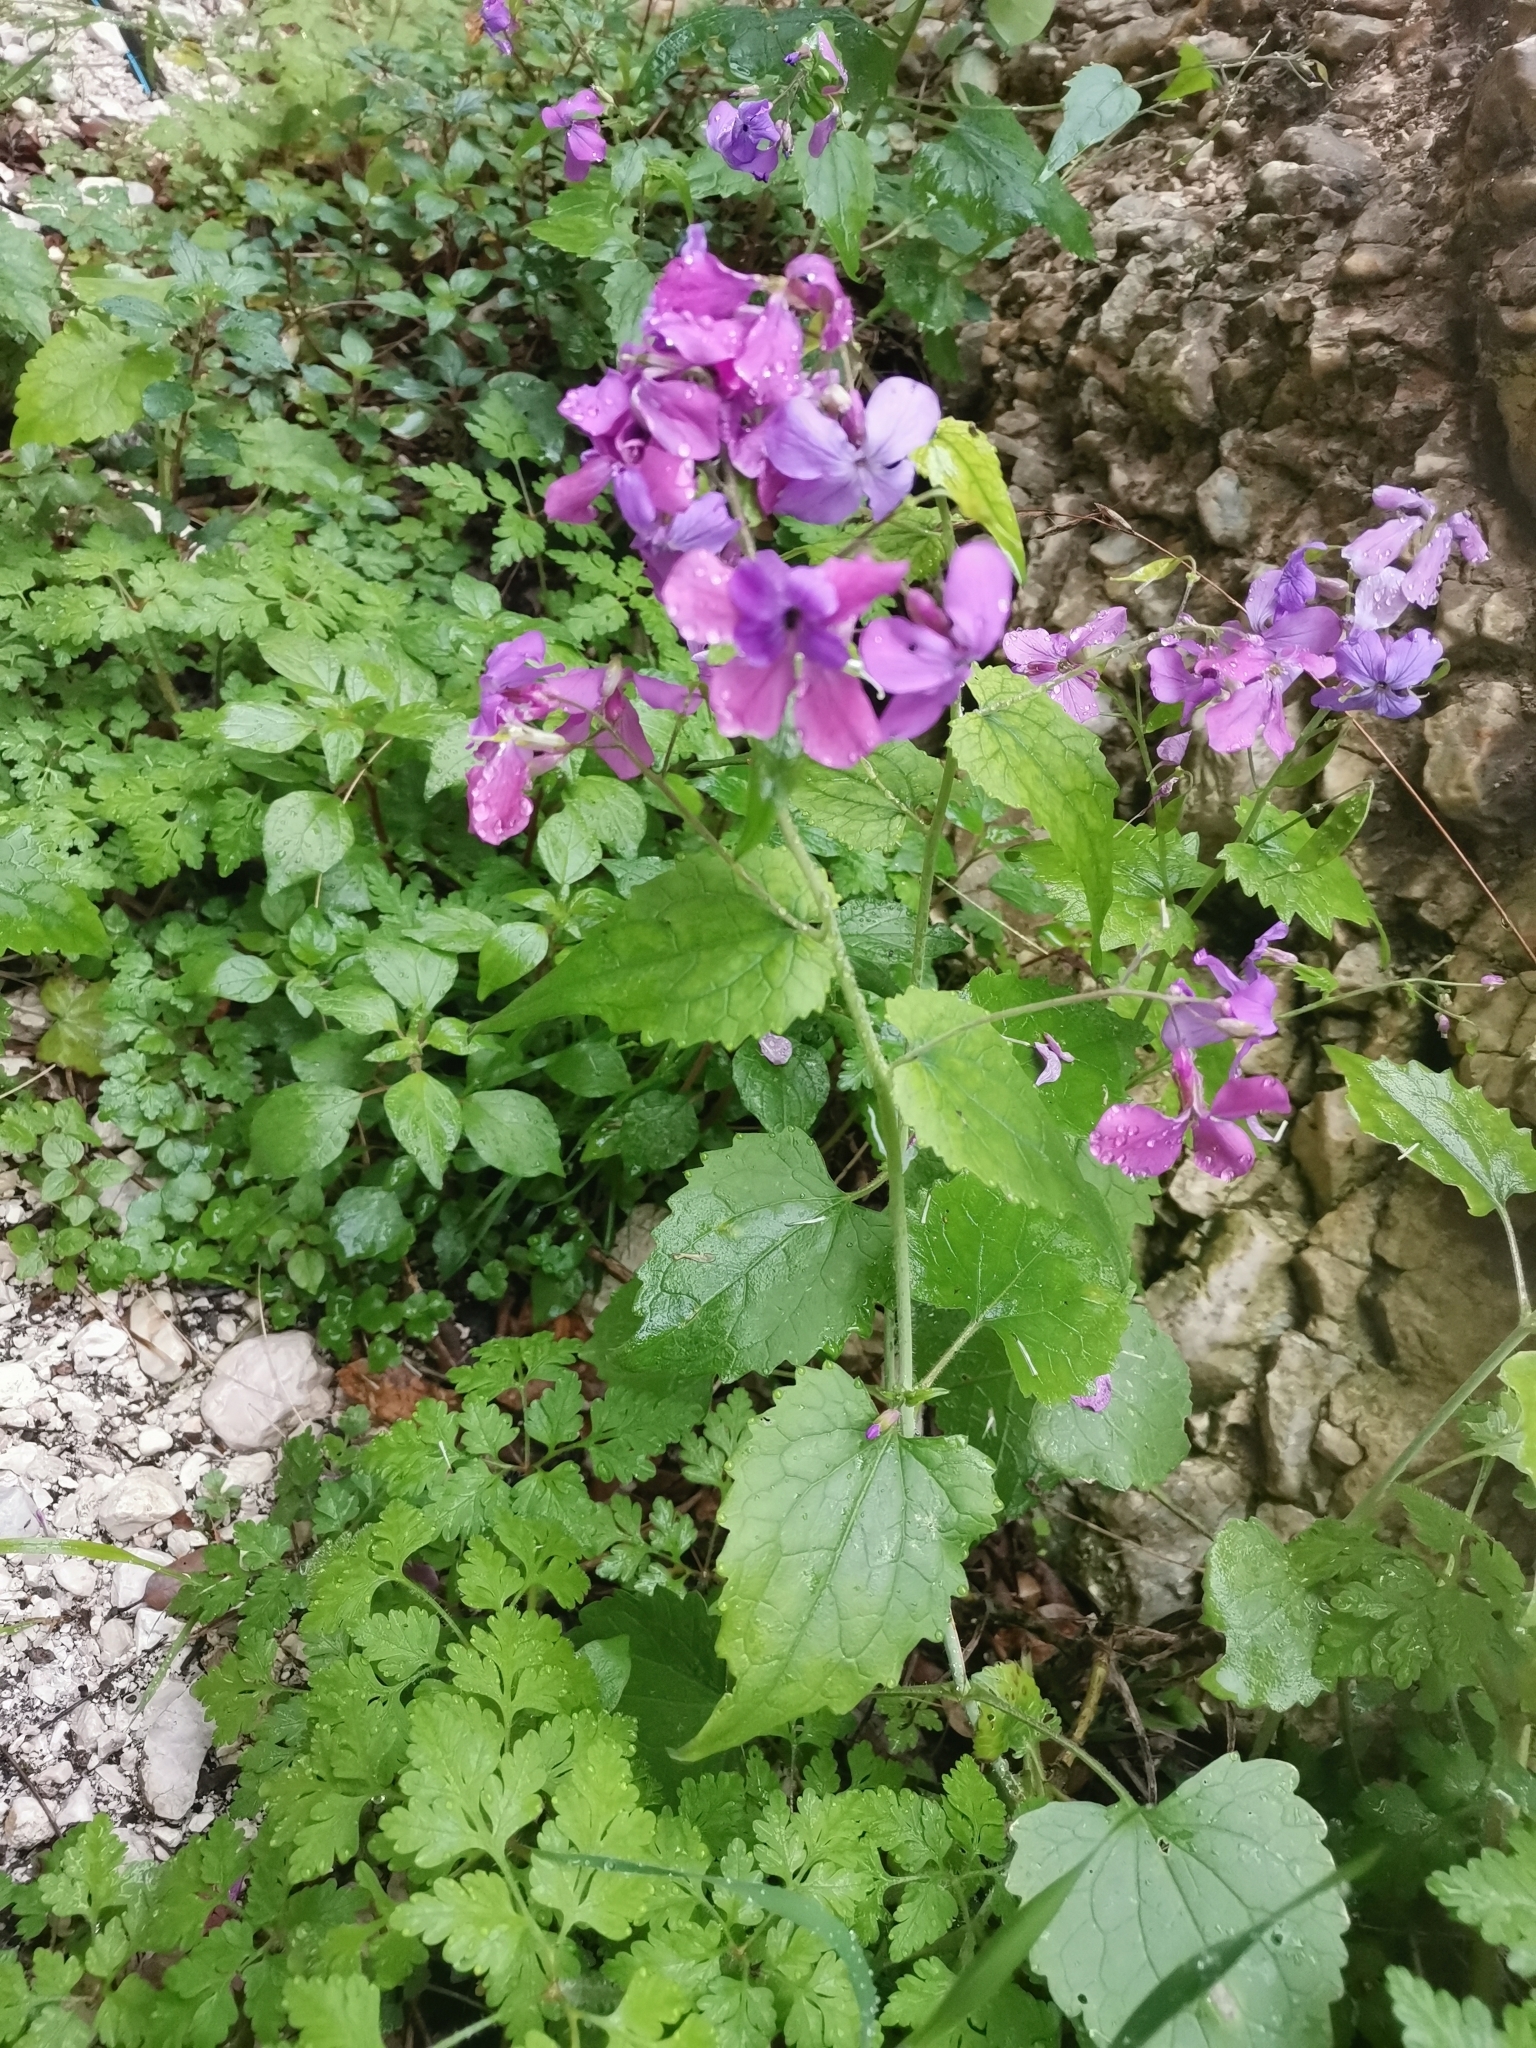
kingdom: Plantae
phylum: Tracheophyta
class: Magnoliopsida
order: Brassicales
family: Brassicaceae
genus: Lunaria
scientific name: Lunaria annua
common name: Honesty
